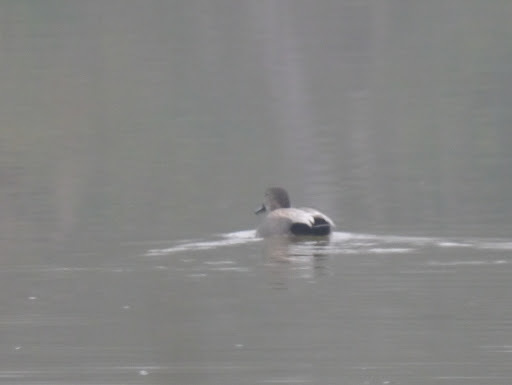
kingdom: Animalia
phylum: Chordata
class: Aves
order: Anseriformes
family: Anatidae
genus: Mareca
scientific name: Mareca strepera
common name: Gadwall
